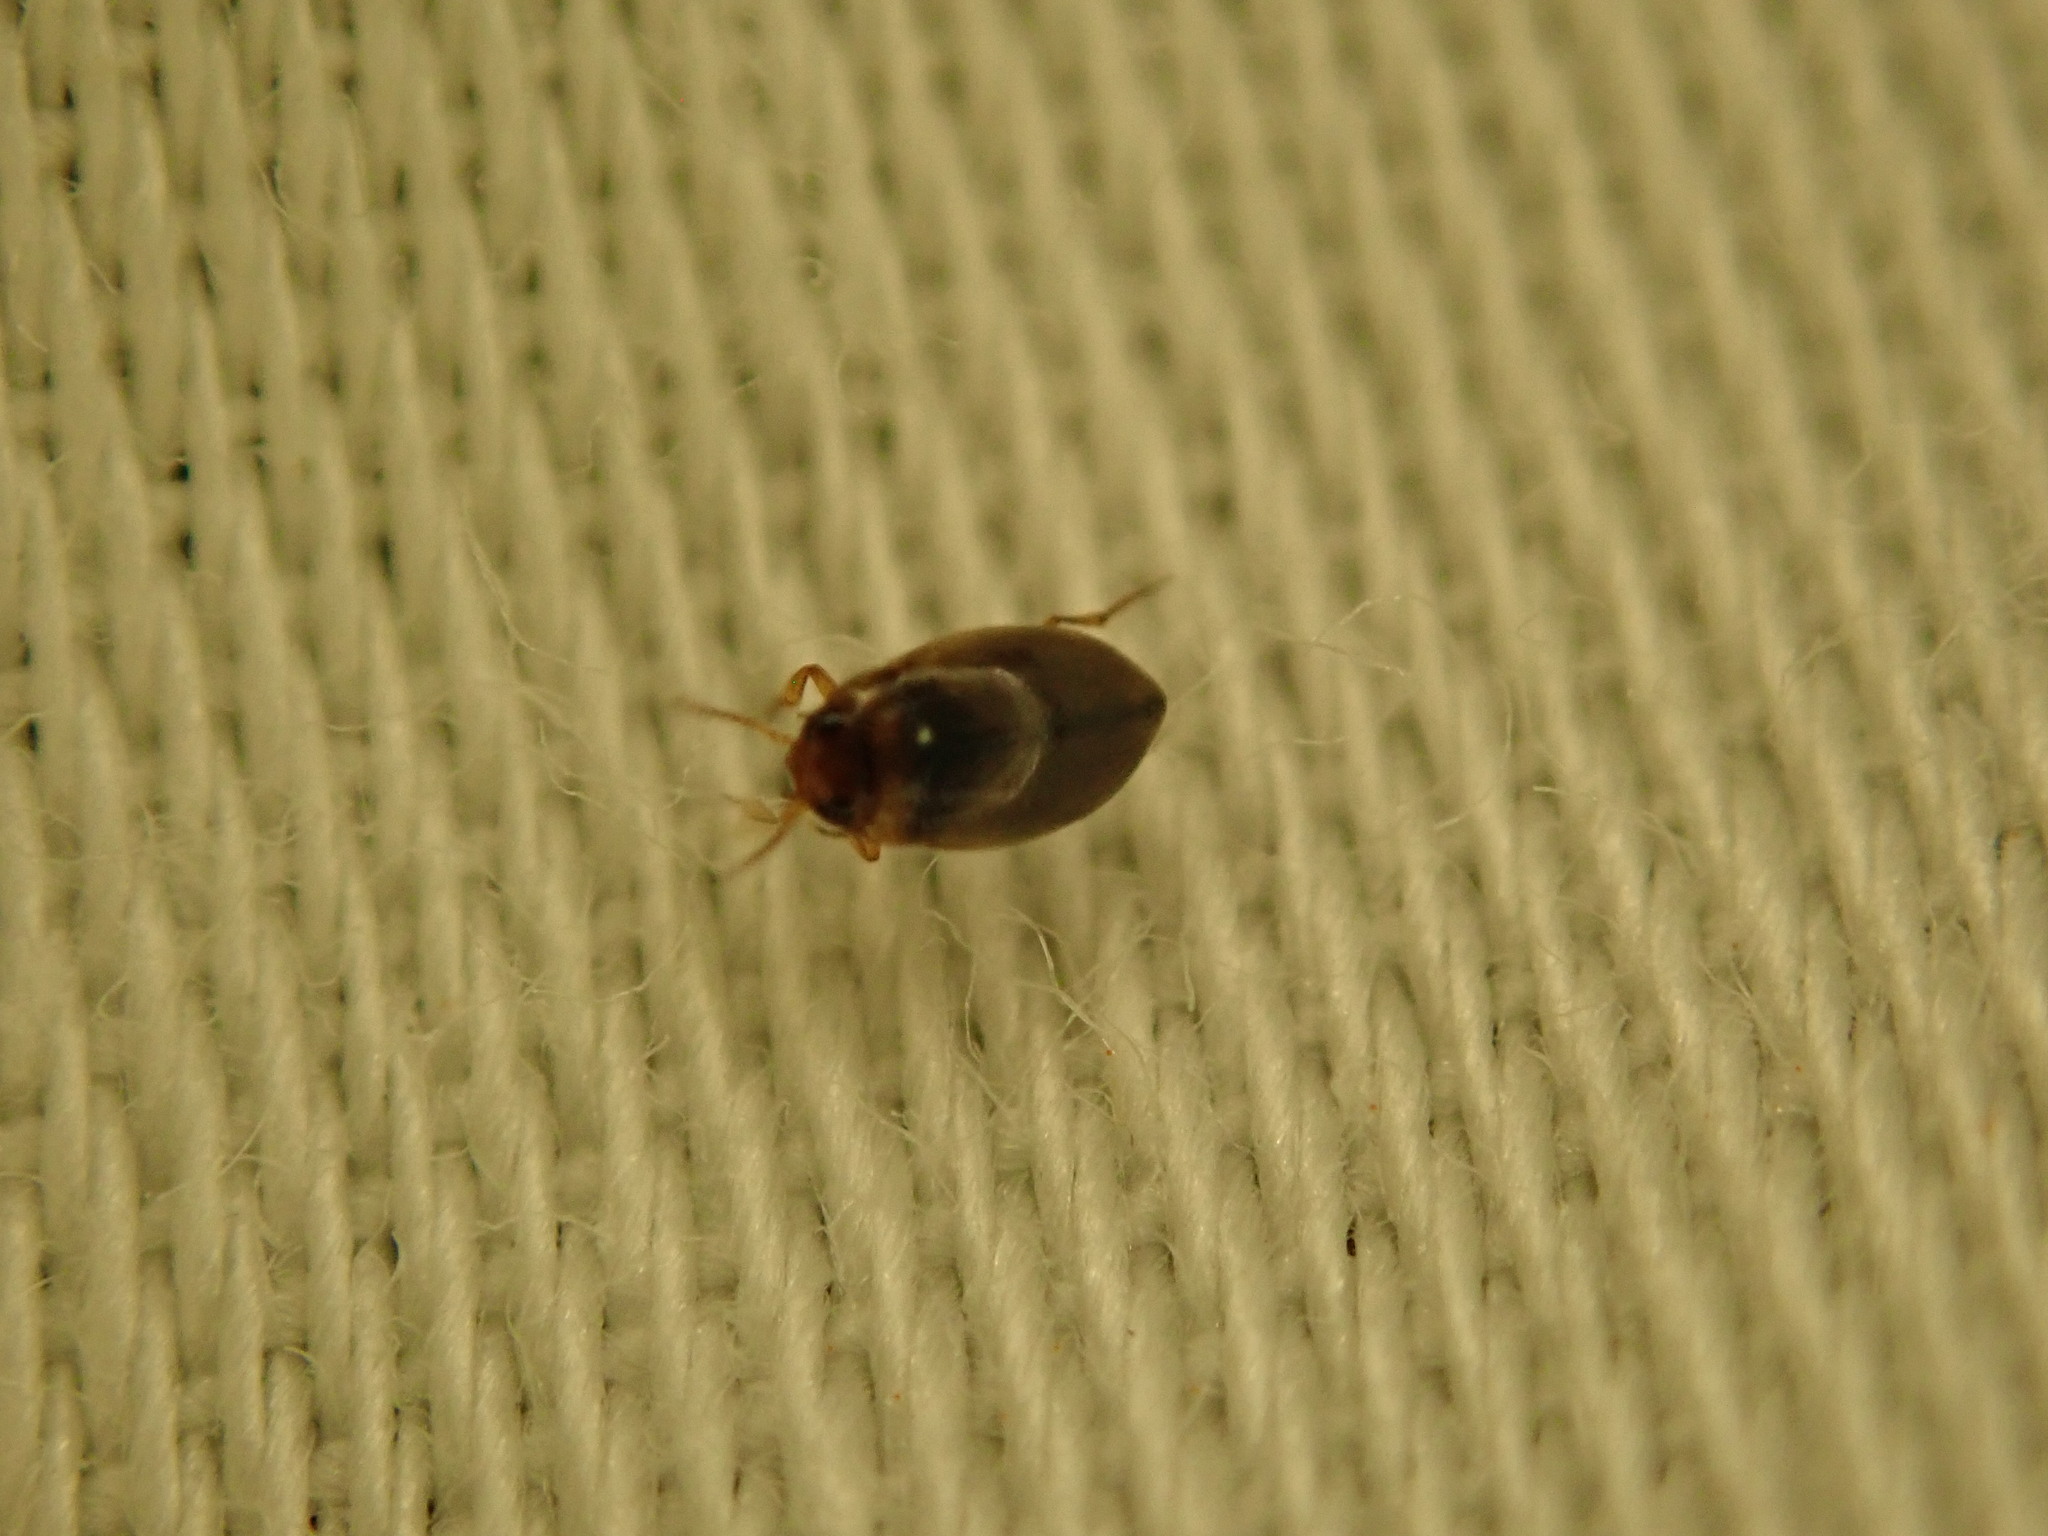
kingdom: Animalia
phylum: Arthropoda
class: Insecta
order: Coleoptera
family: Dytiscidae
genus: Uvarus
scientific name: Uvarus
